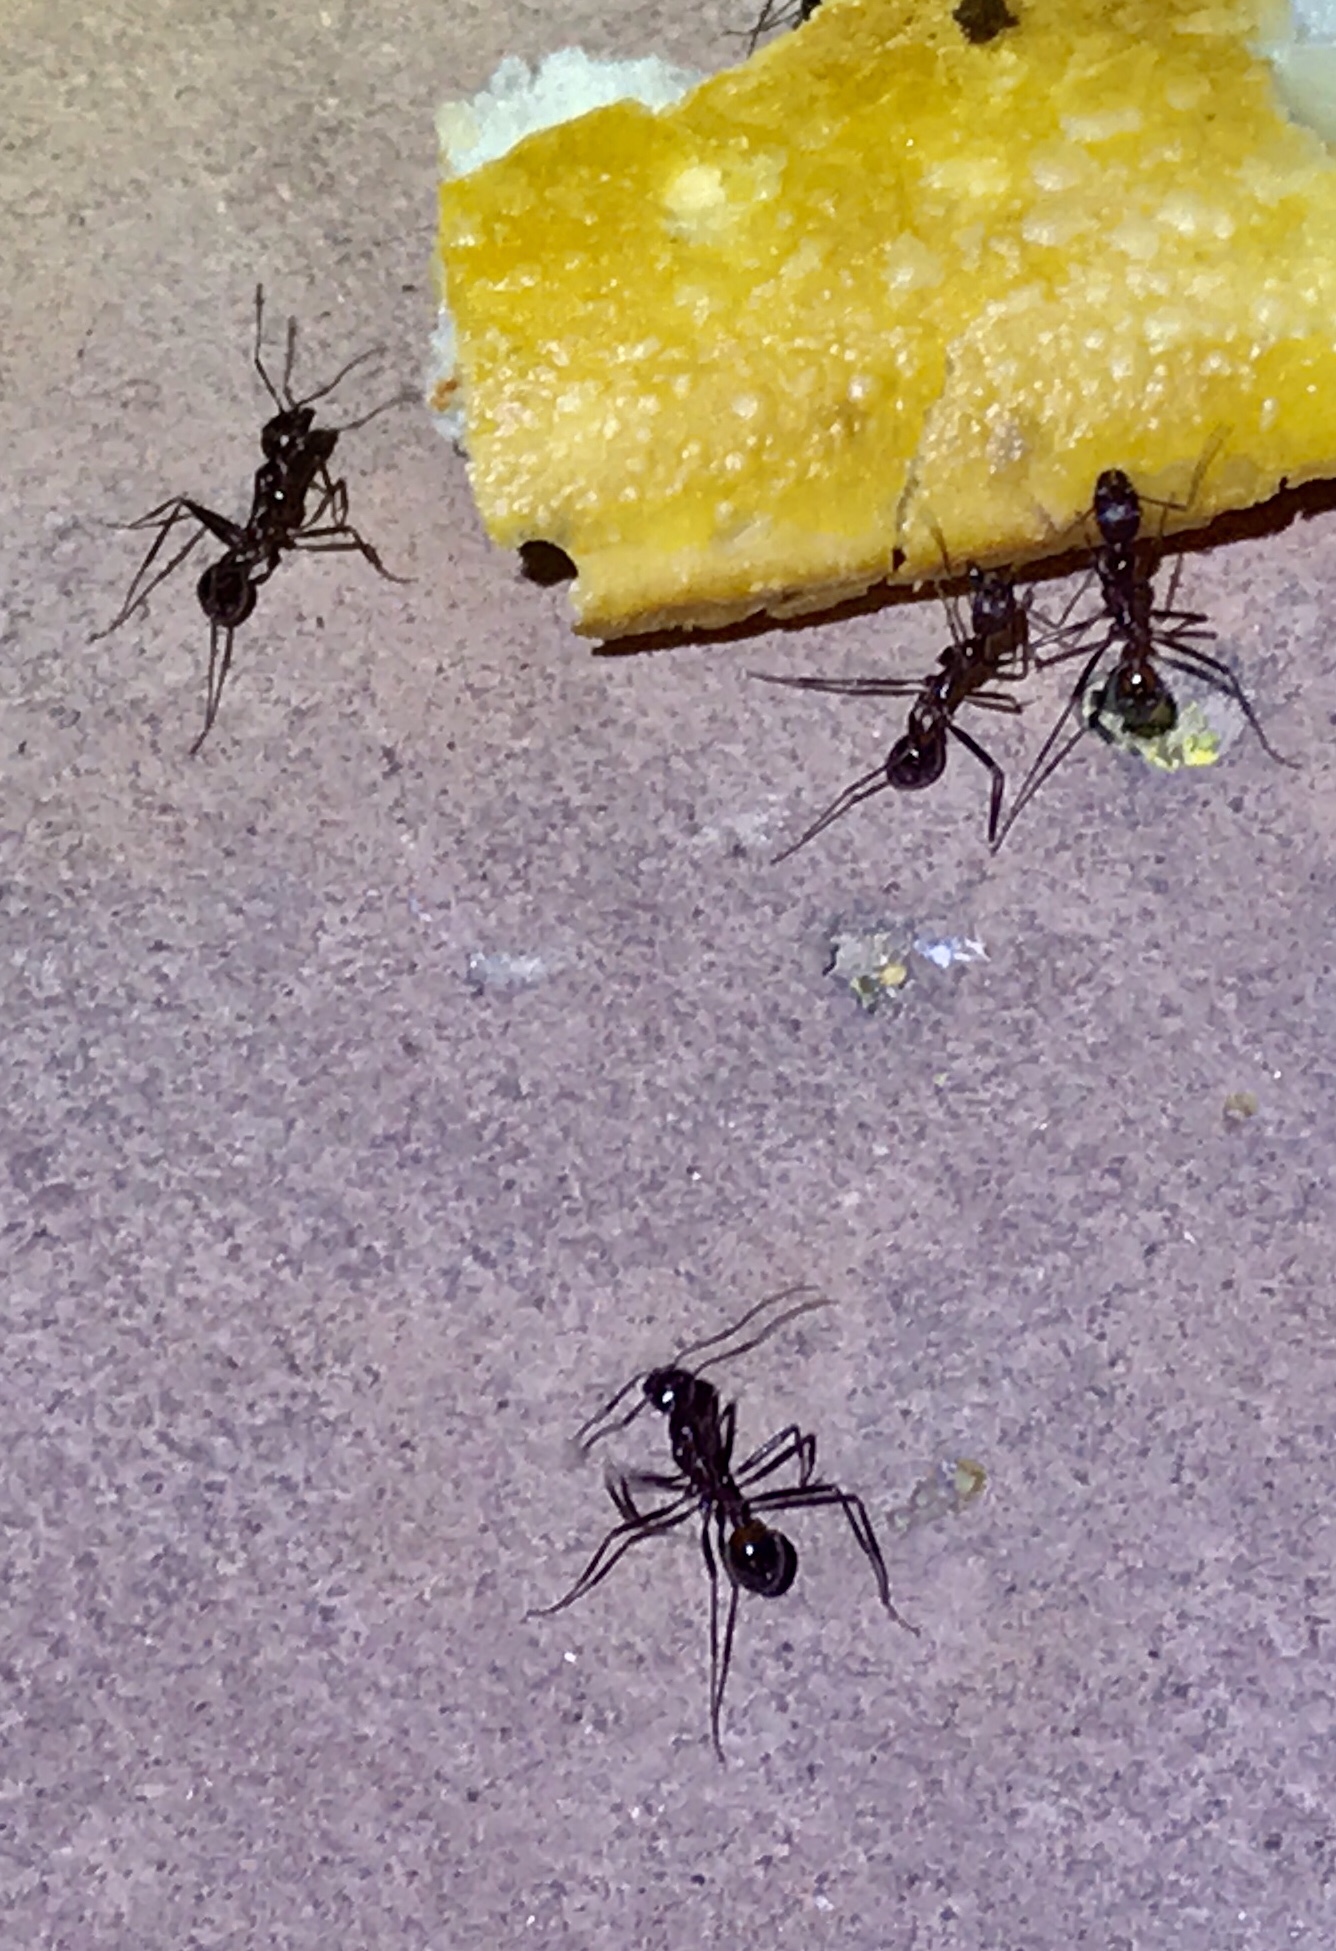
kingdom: Animalia
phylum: Arthropoda
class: Insecta
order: Hymenoptera
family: Formicidae
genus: Novomessor
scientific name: Novomessor cockerelli
